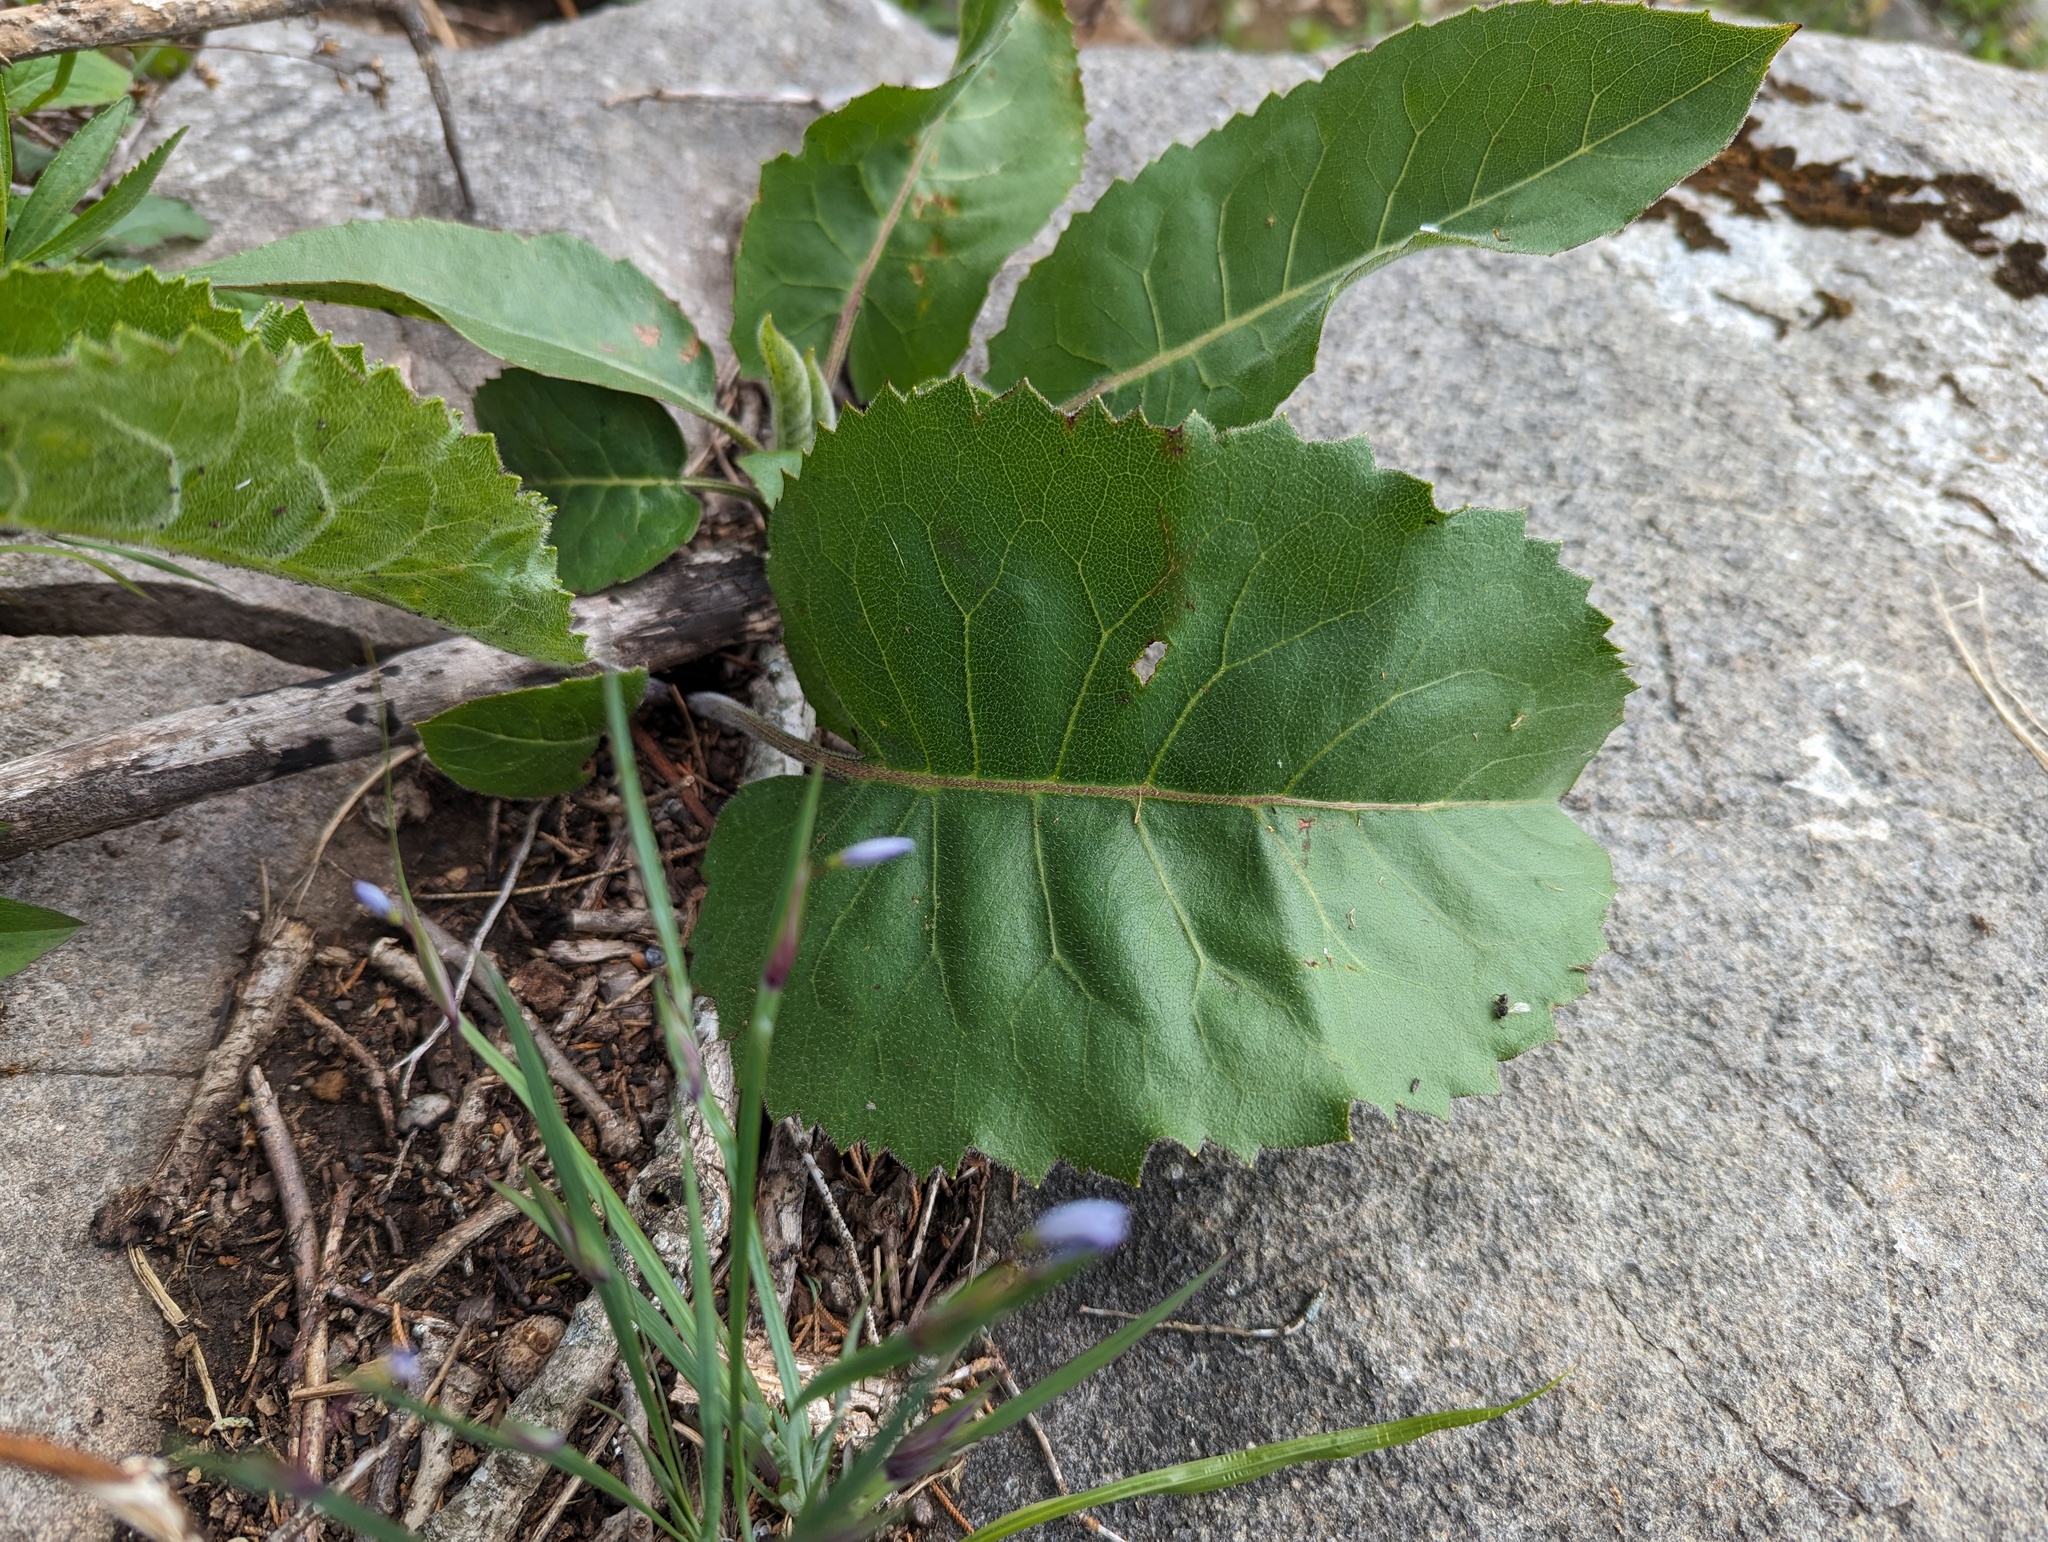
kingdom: Plantae
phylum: Tracheophyta
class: Magnoliopsida
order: Asterales
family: Asteraceae
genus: Silphium
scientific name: Silphium terebinthinaceum
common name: Basal-leaf rosinweed
